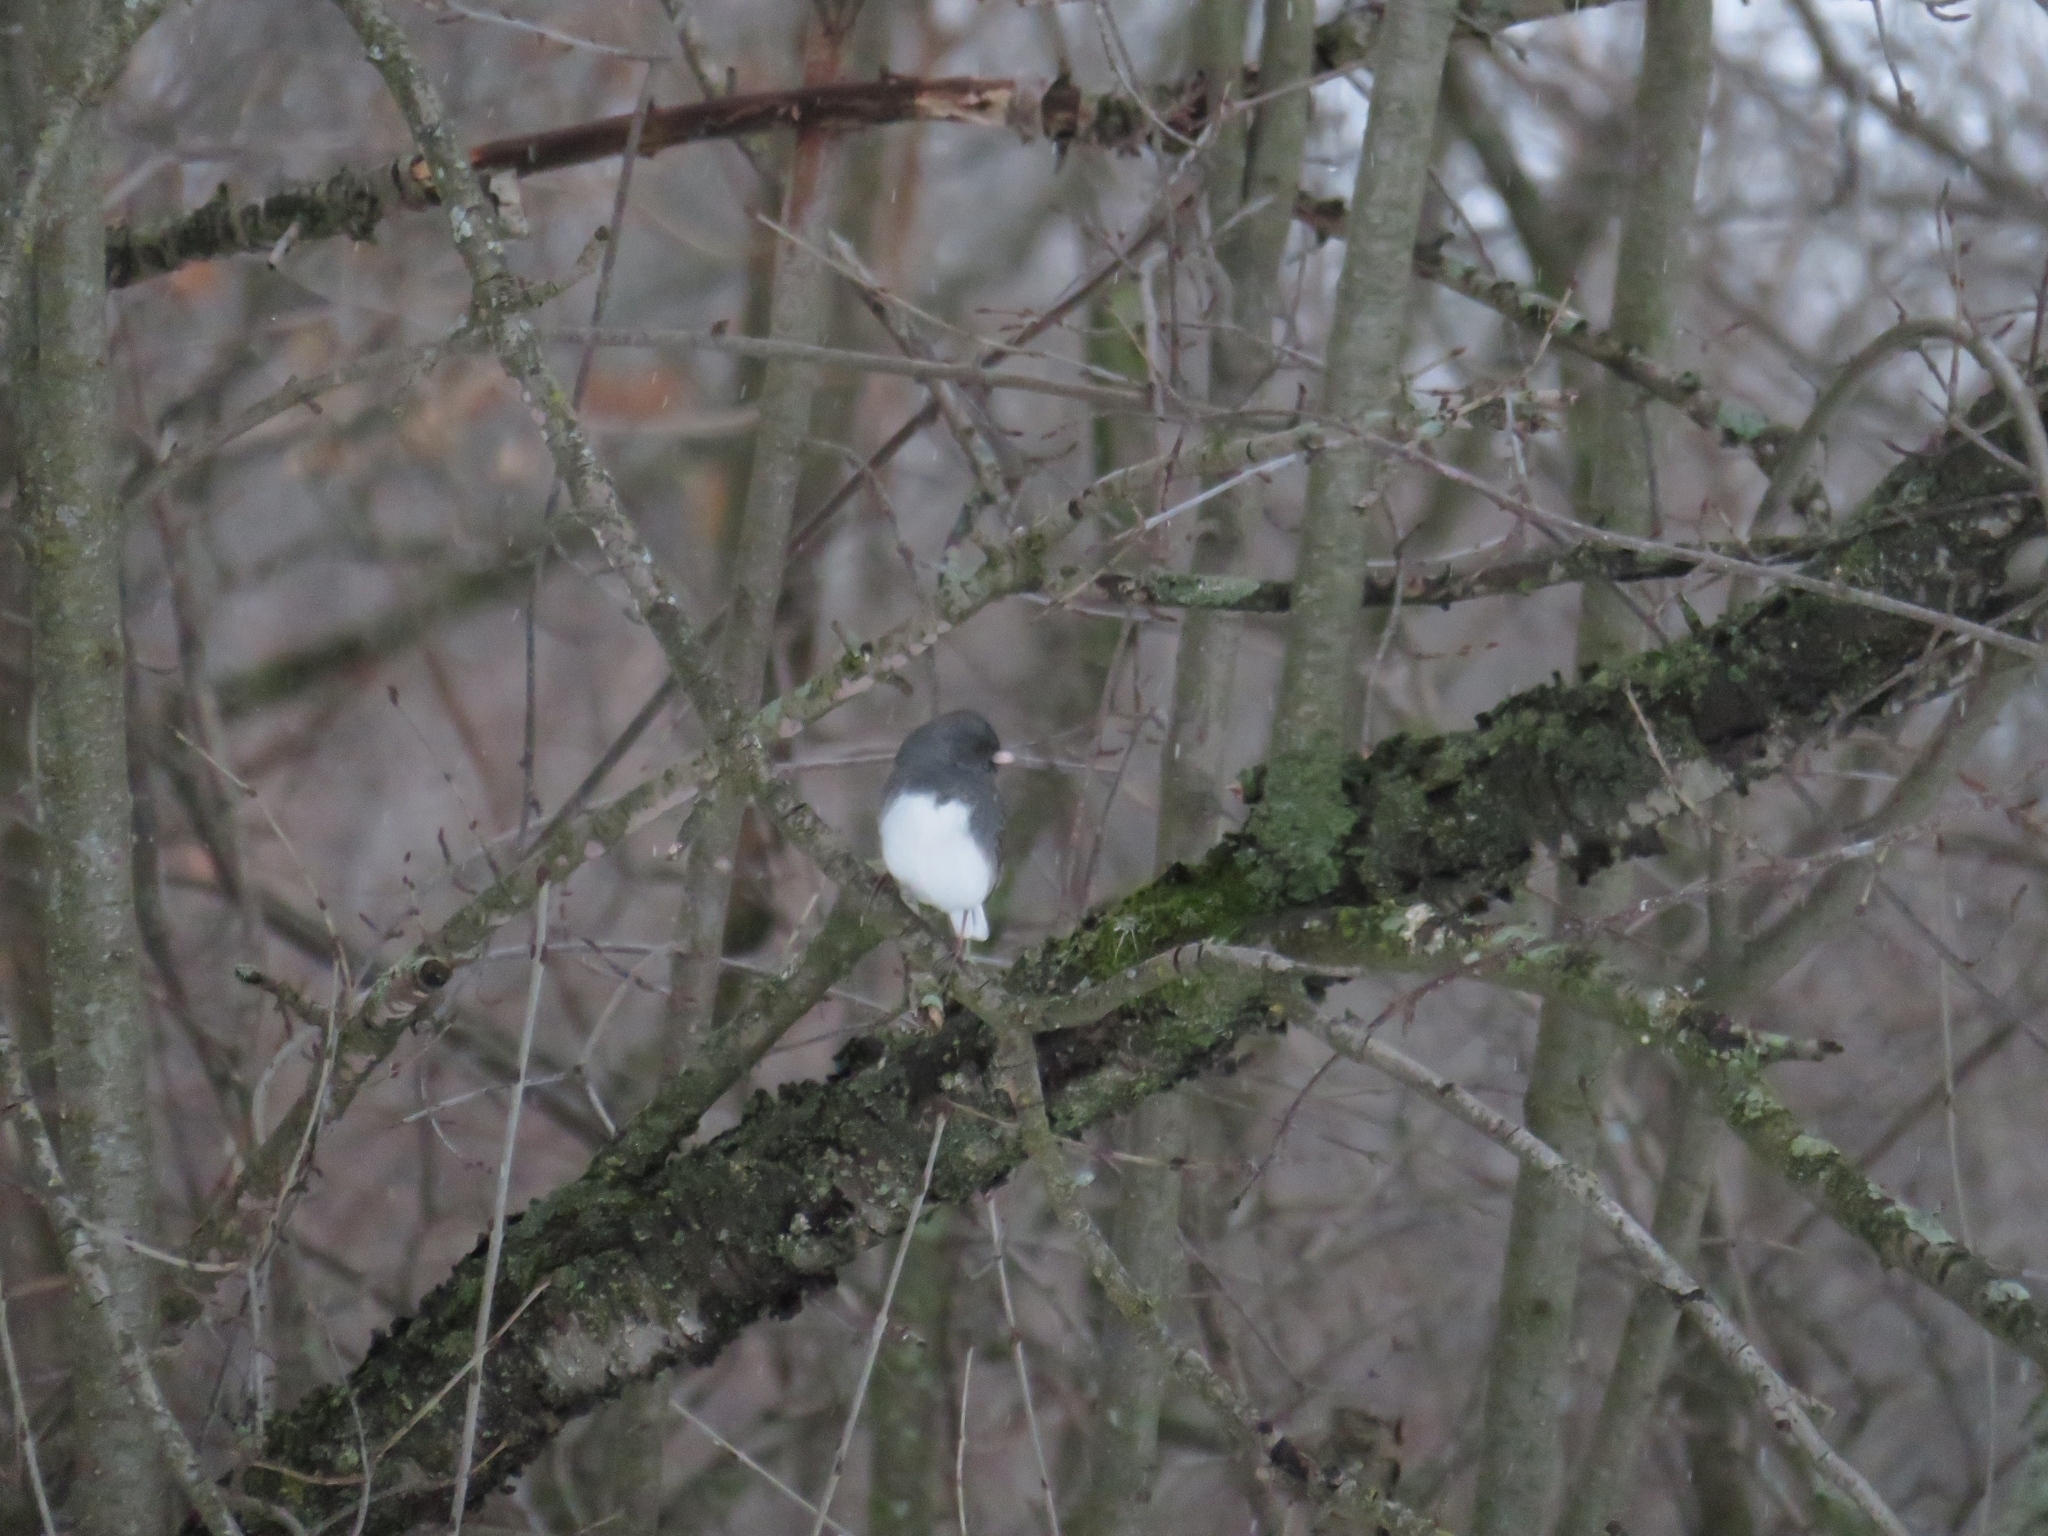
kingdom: Animalia
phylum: Chordata
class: Aves
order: Passeriformes
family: Passerellidae
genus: Junco
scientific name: Junco hyemalis
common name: Dark-eyed junco
